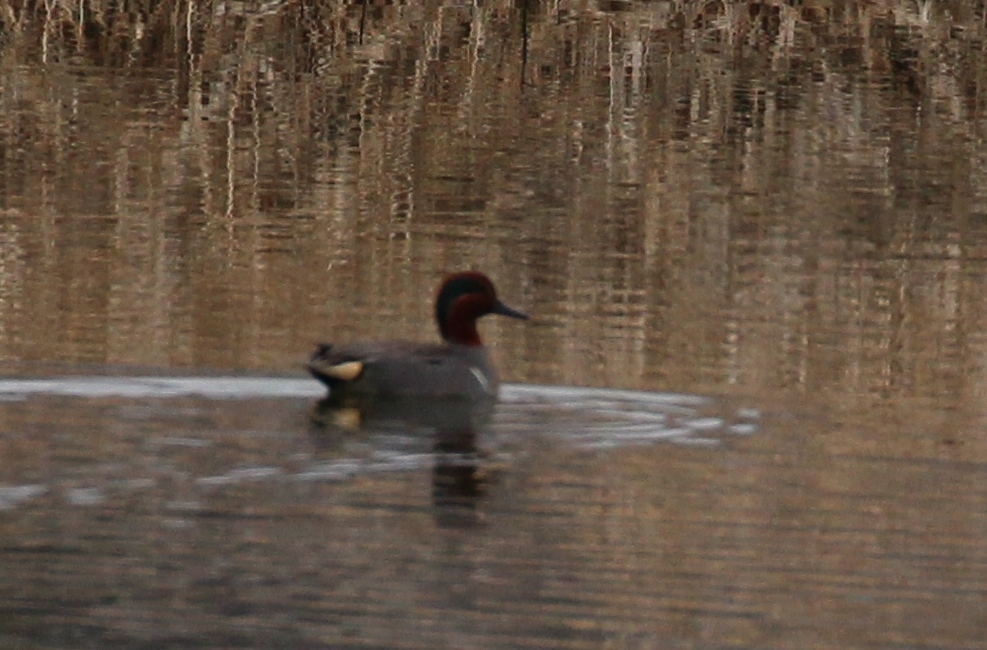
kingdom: Animalia
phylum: Chordata
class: Aves
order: Anseriformes
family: Anatidae
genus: Anas
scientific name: Anas crecca
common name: Eurasian teal
